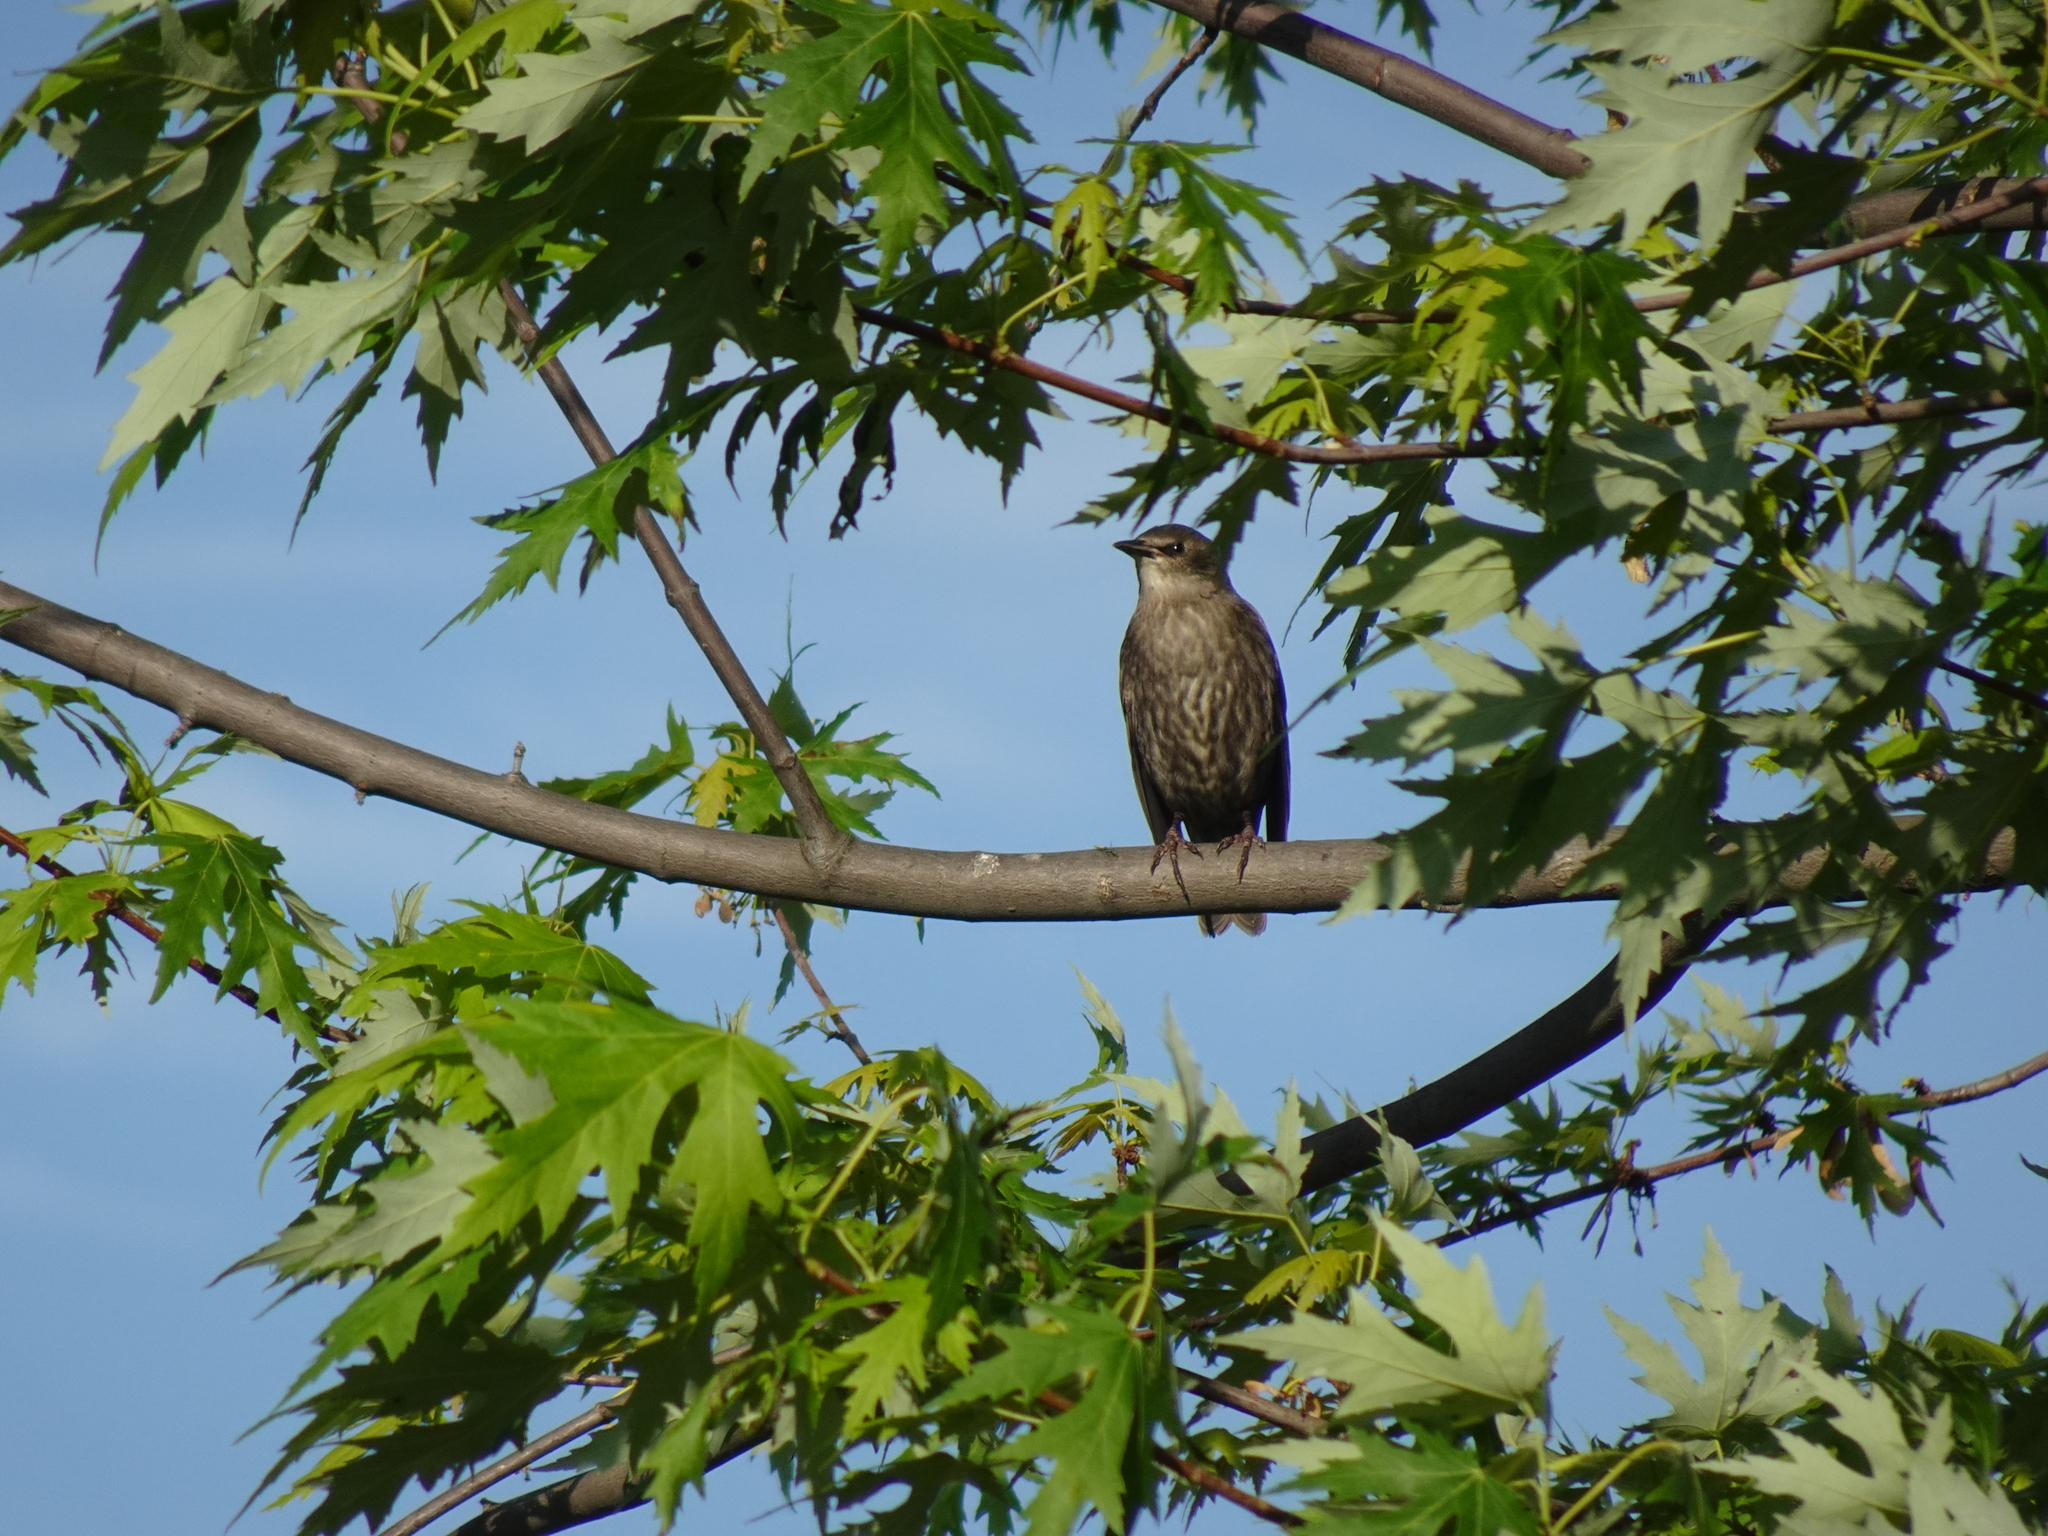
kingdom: Animalia
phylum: Chordata
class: Aves
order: Passeriformes
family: Sturnidae
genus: Sturnus
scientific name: Sturnus vulgaris
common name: Common starling
